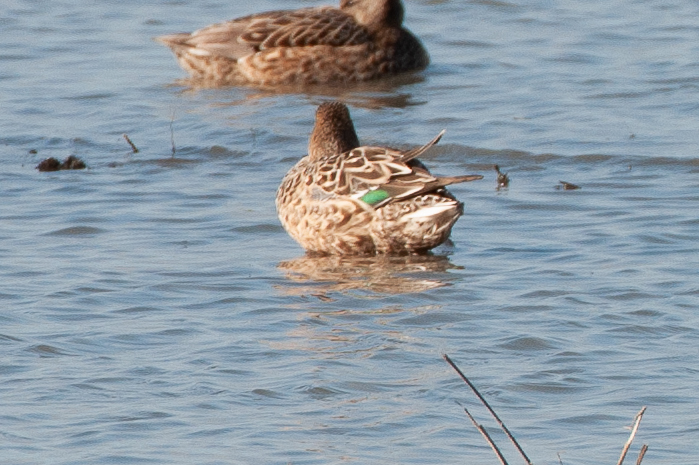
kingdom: Animalia
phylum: Chordata
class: Aves
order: Anseriformes
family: Anatidae
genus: Anas
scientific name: Anas crecca
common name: Eurasian teal
